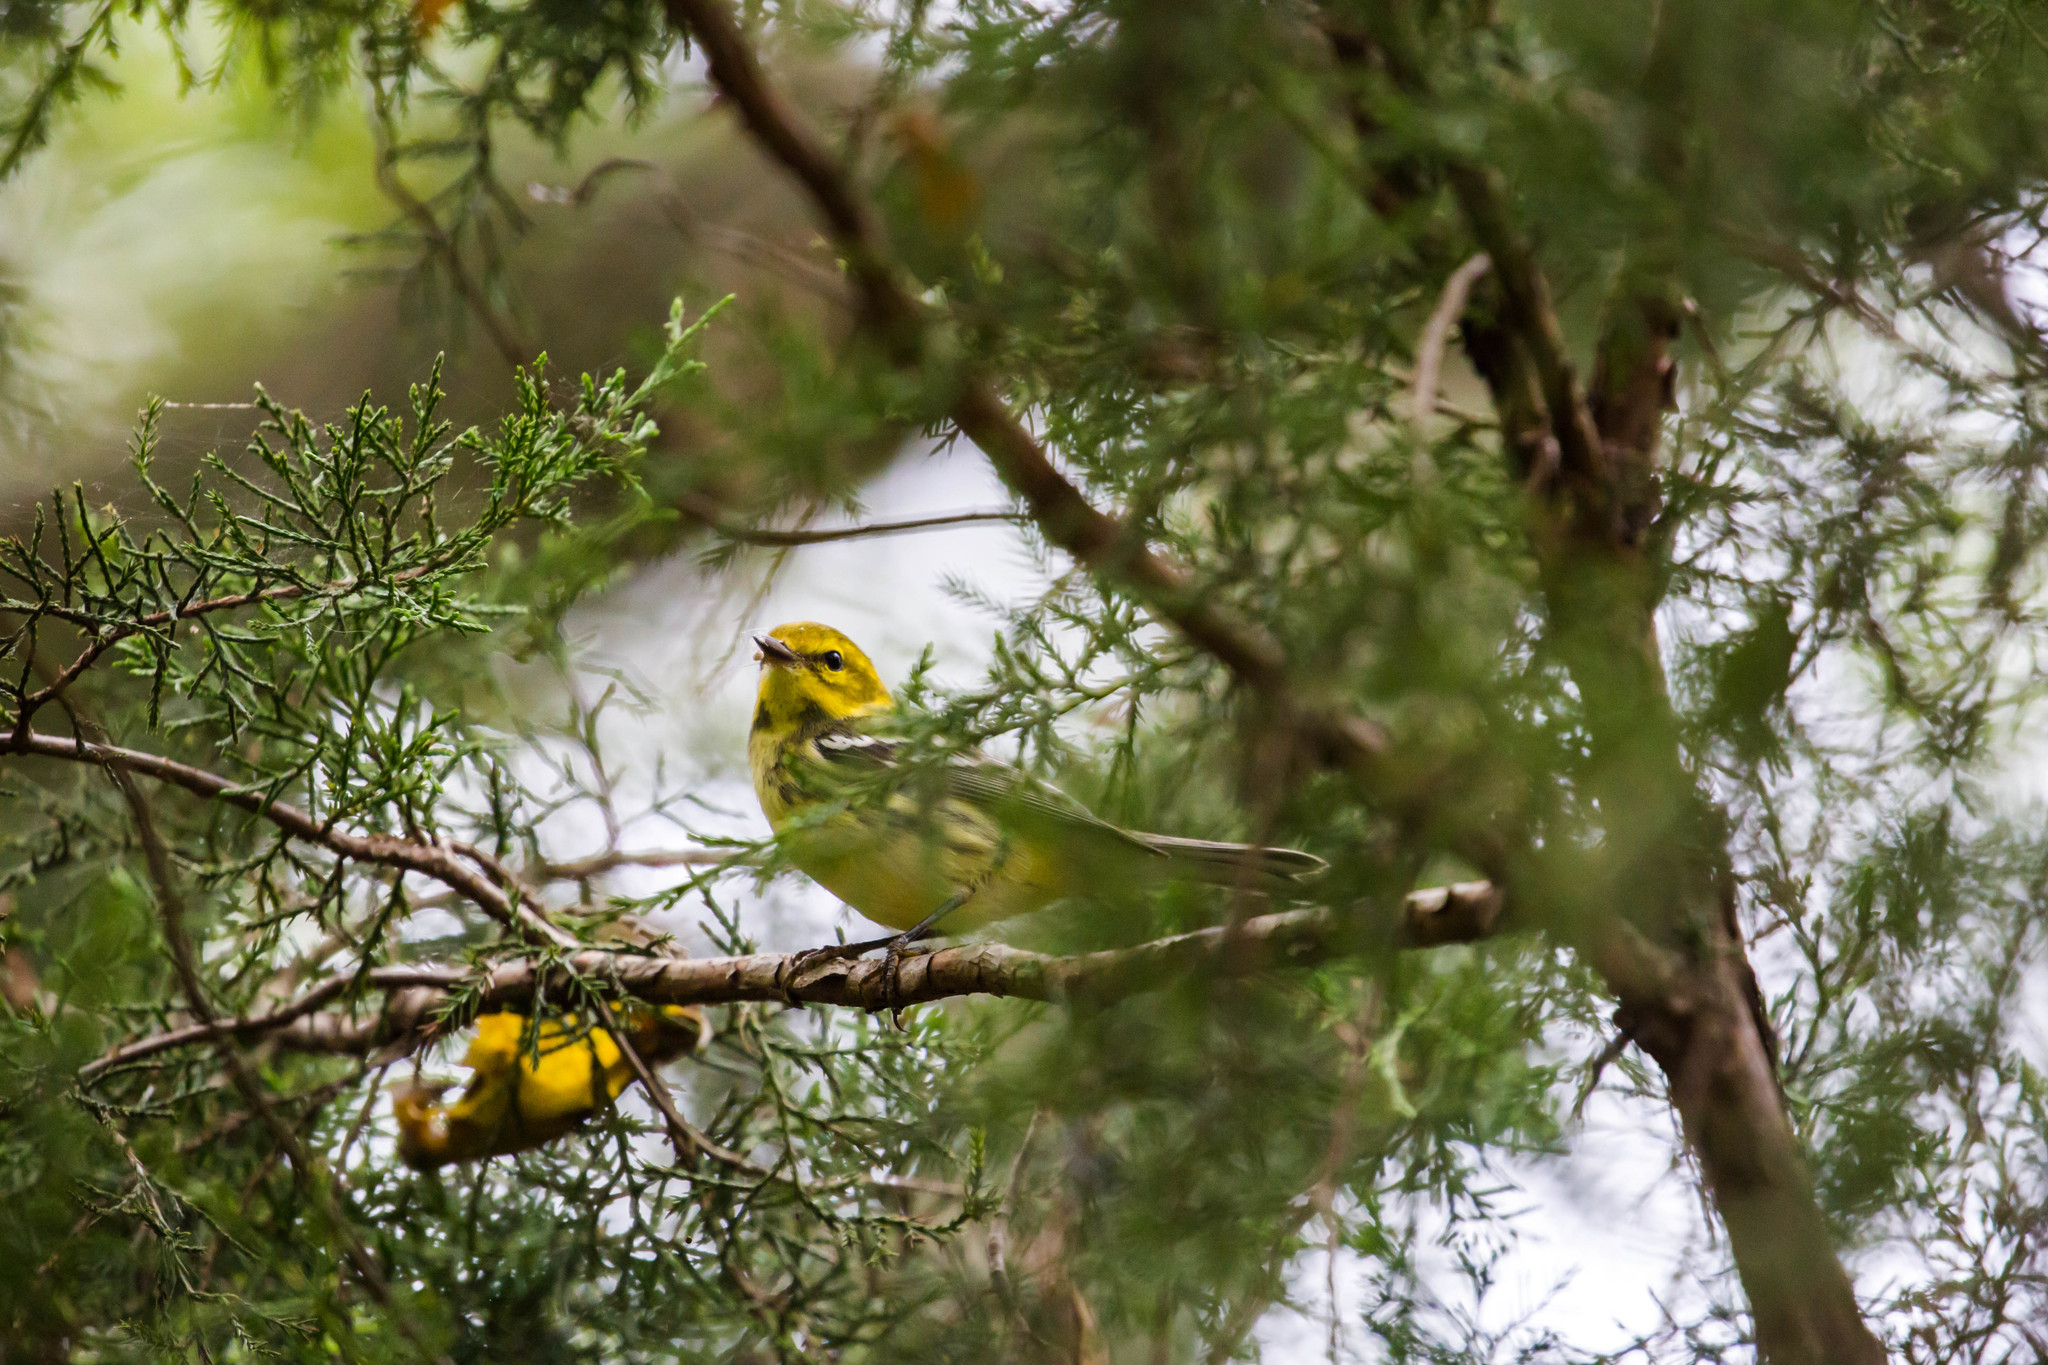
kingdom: Animalia
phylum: Chordata
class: Aves
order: Passeriformes
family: Parulidae
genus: Setophaga
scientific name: Setophaga virens
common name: Black-throated green warbler
